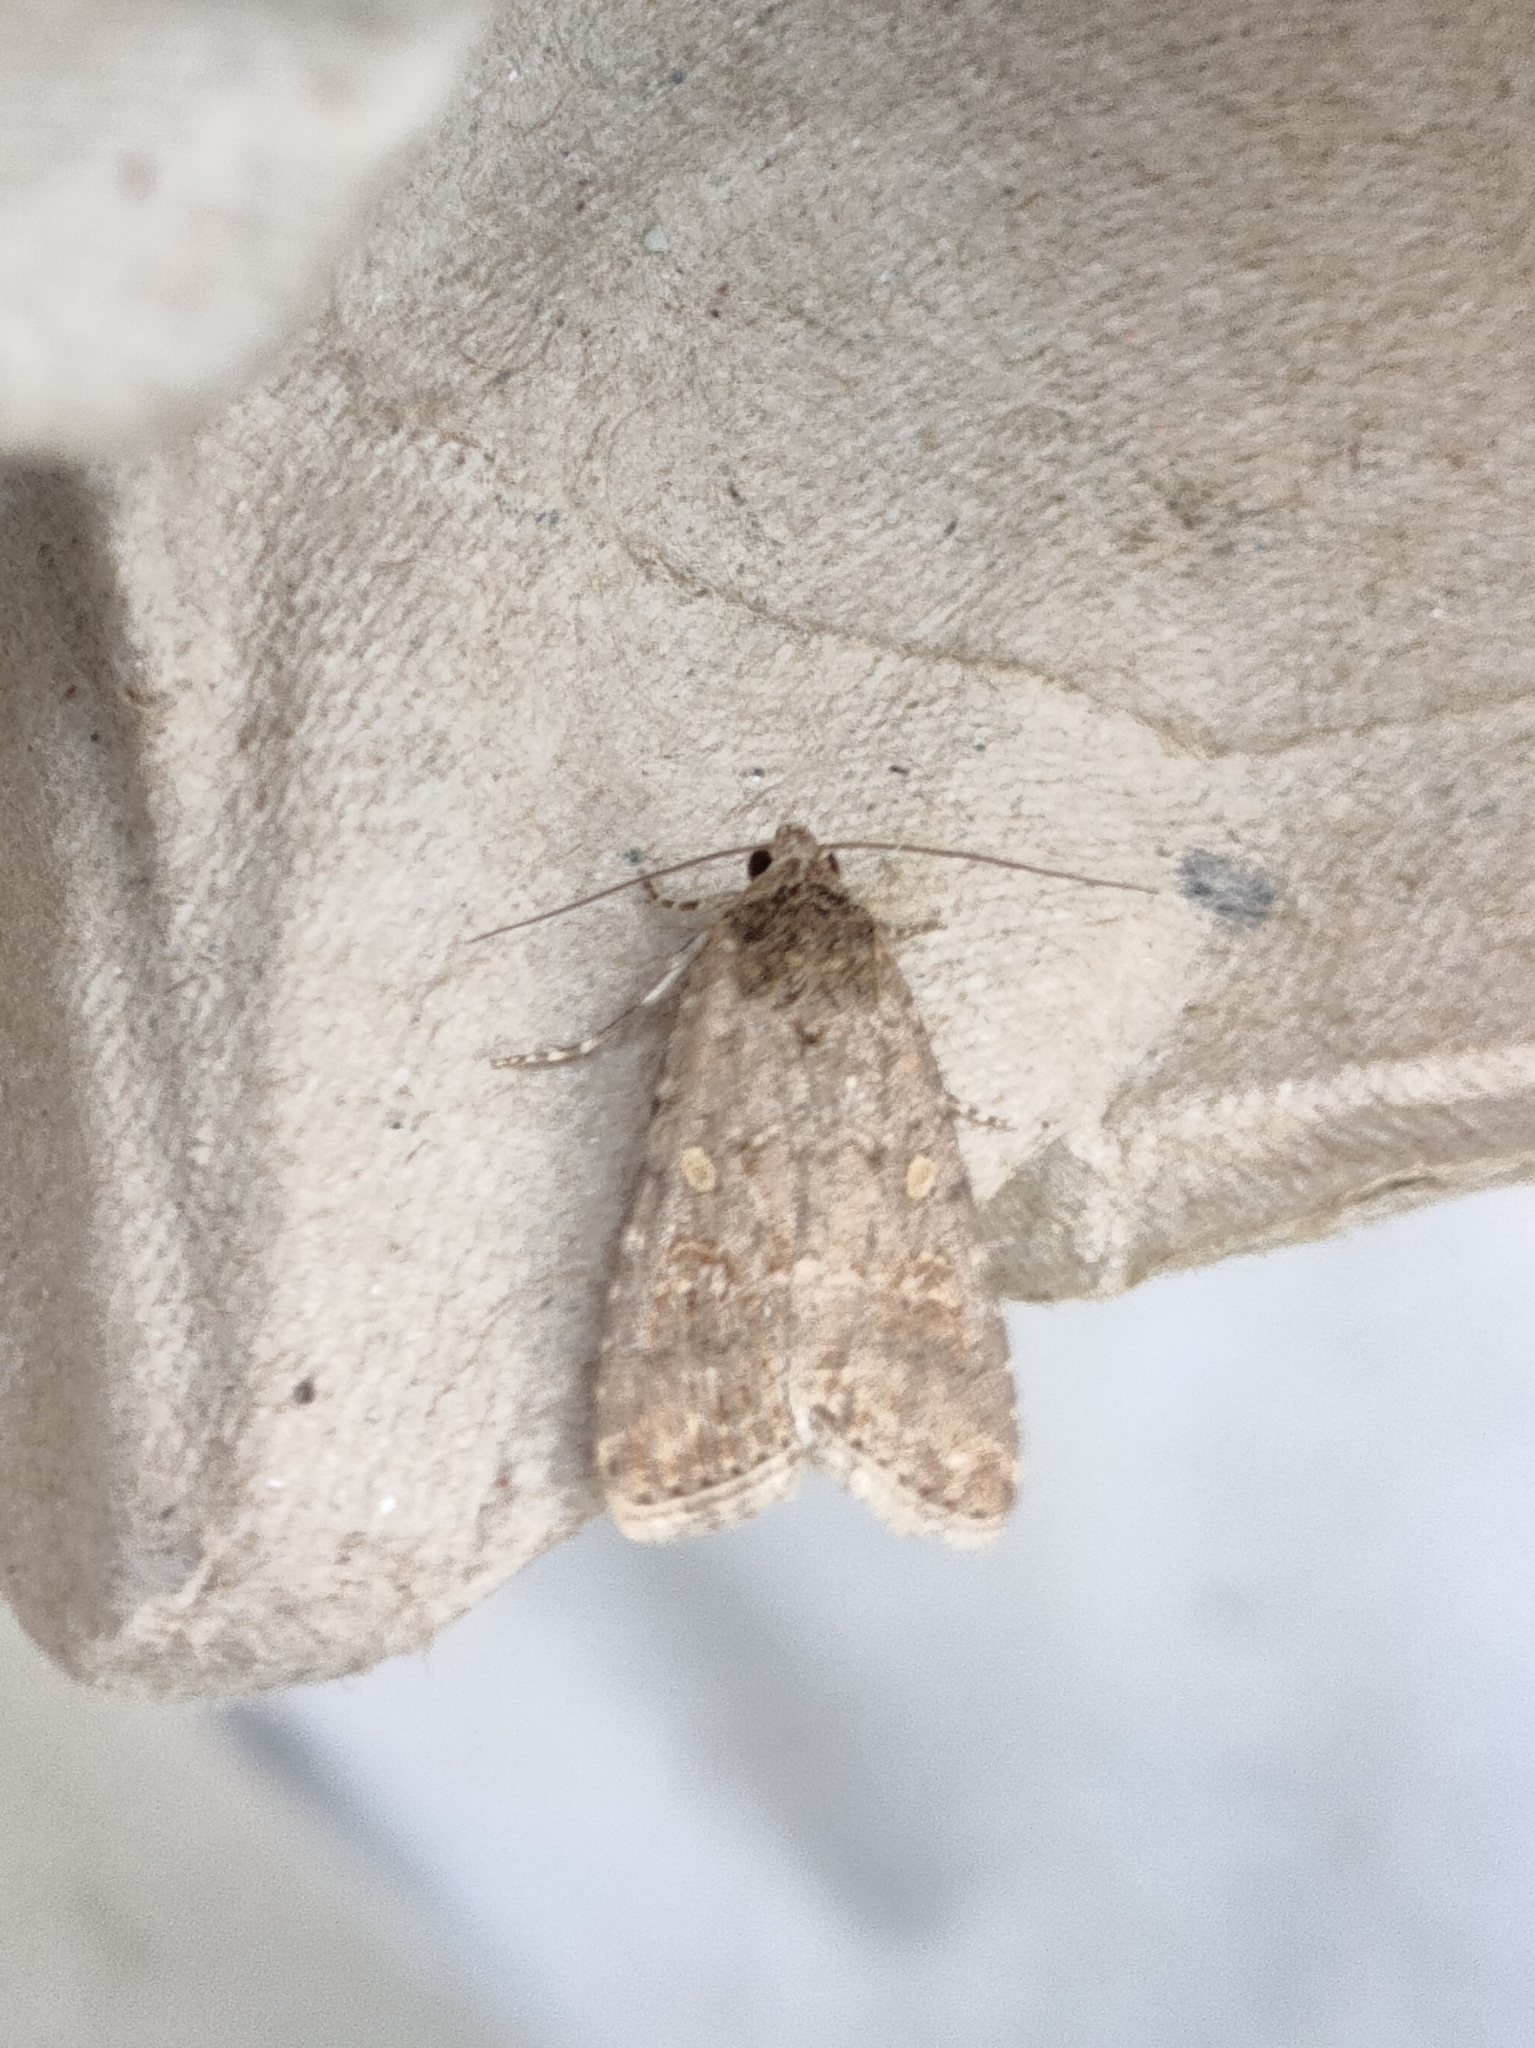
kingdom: Animalia
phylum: Arthropoda
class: Insecta
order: Lepidoptera
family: Noctuidae
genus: Spodoptera
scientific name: Spodoptera exigua
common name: Beet armyworm
